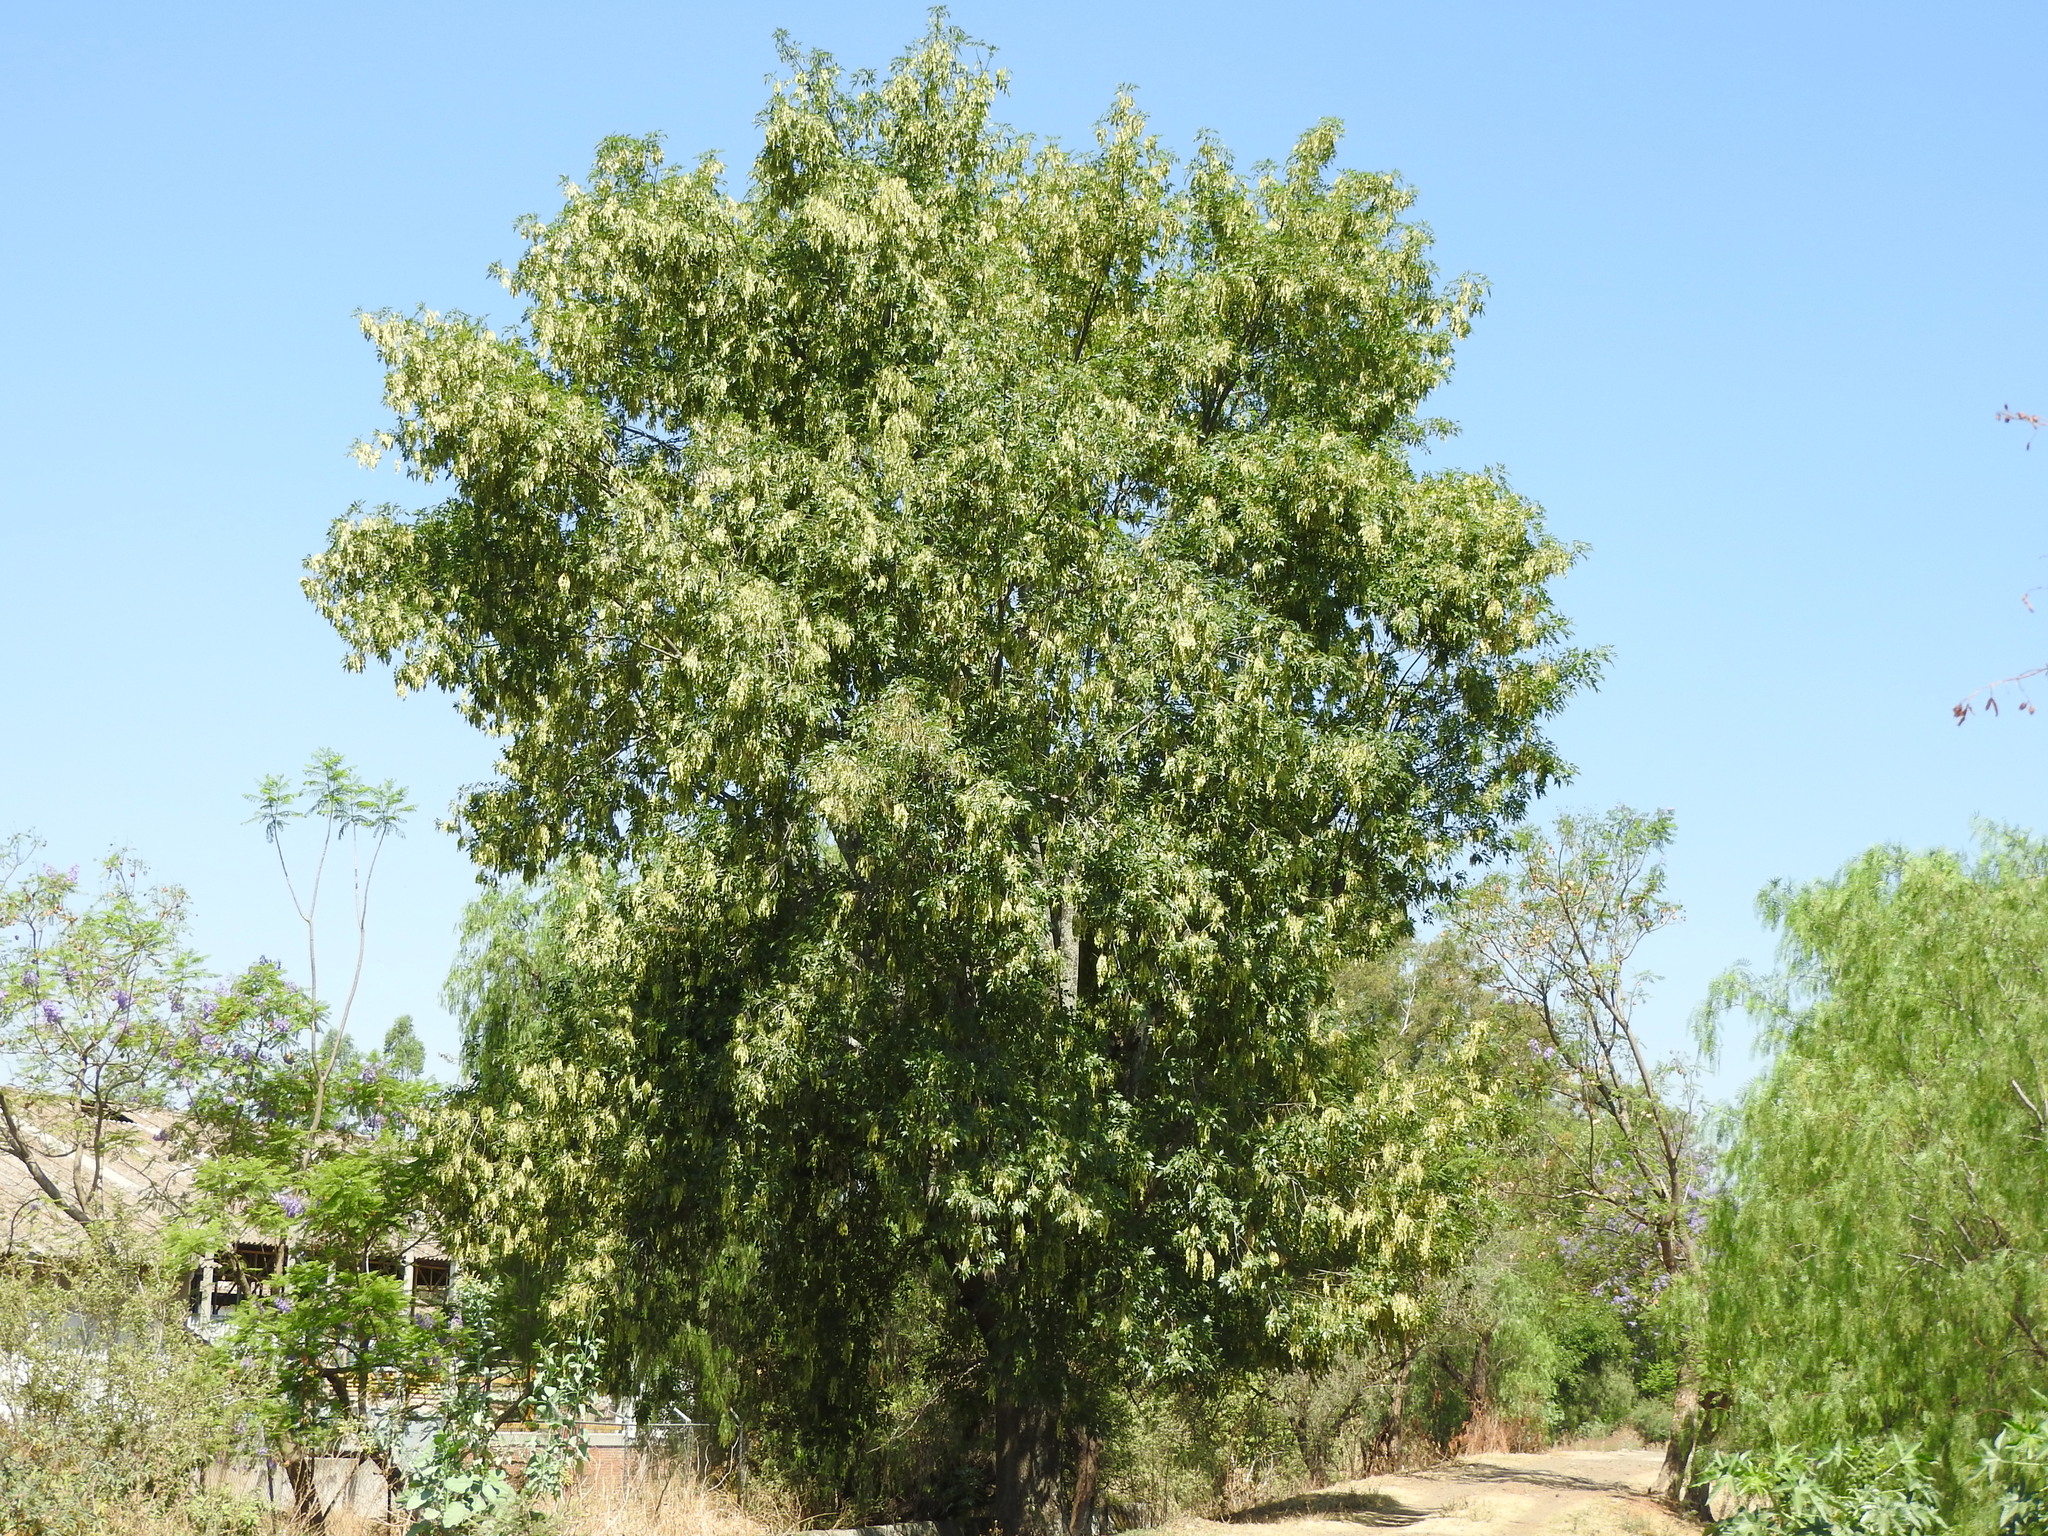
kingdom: Plantae
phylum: Tracheophyta
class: Magnoliopsida
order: Lamiales
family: Oleaceae
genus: Fraxinus
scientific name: Fraxinus uhdei
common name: Shamel ash
